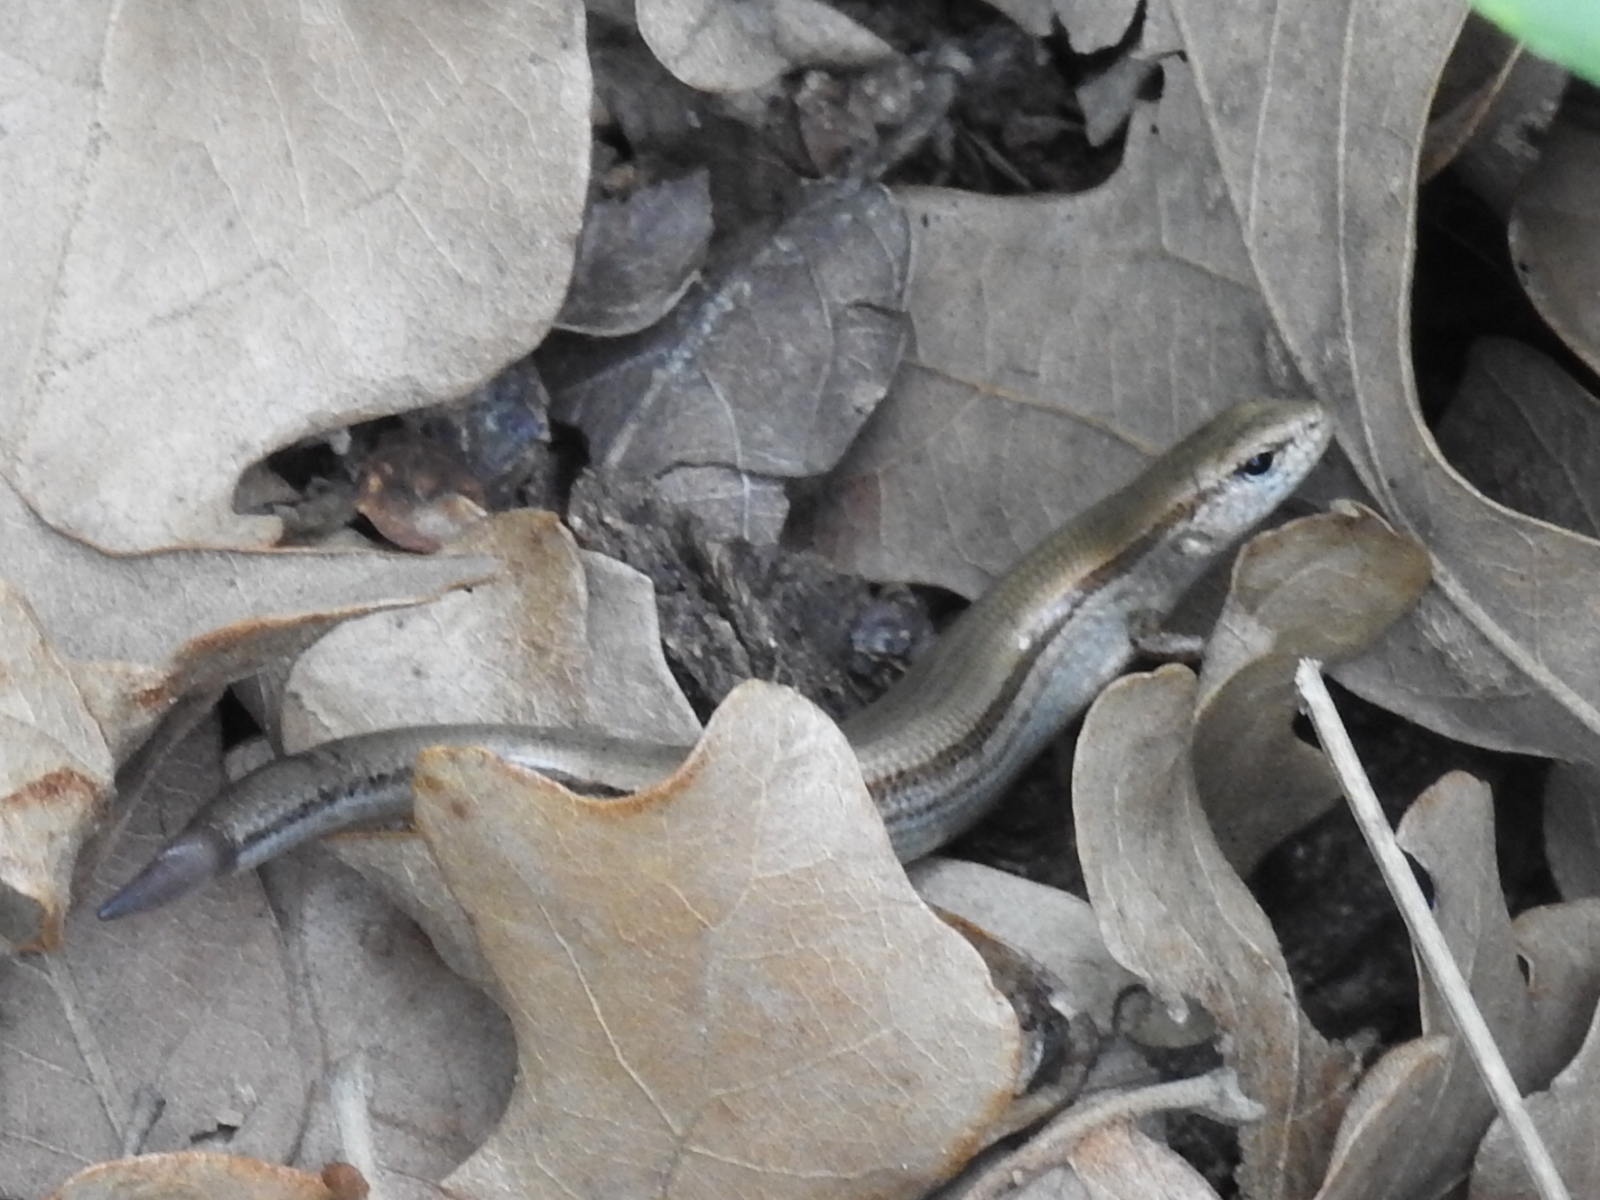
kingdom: Animalia
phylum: Chordata
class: Squamata
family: Scincidae
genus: Scincella
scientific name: Scincella lateralis
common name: Ground skink
